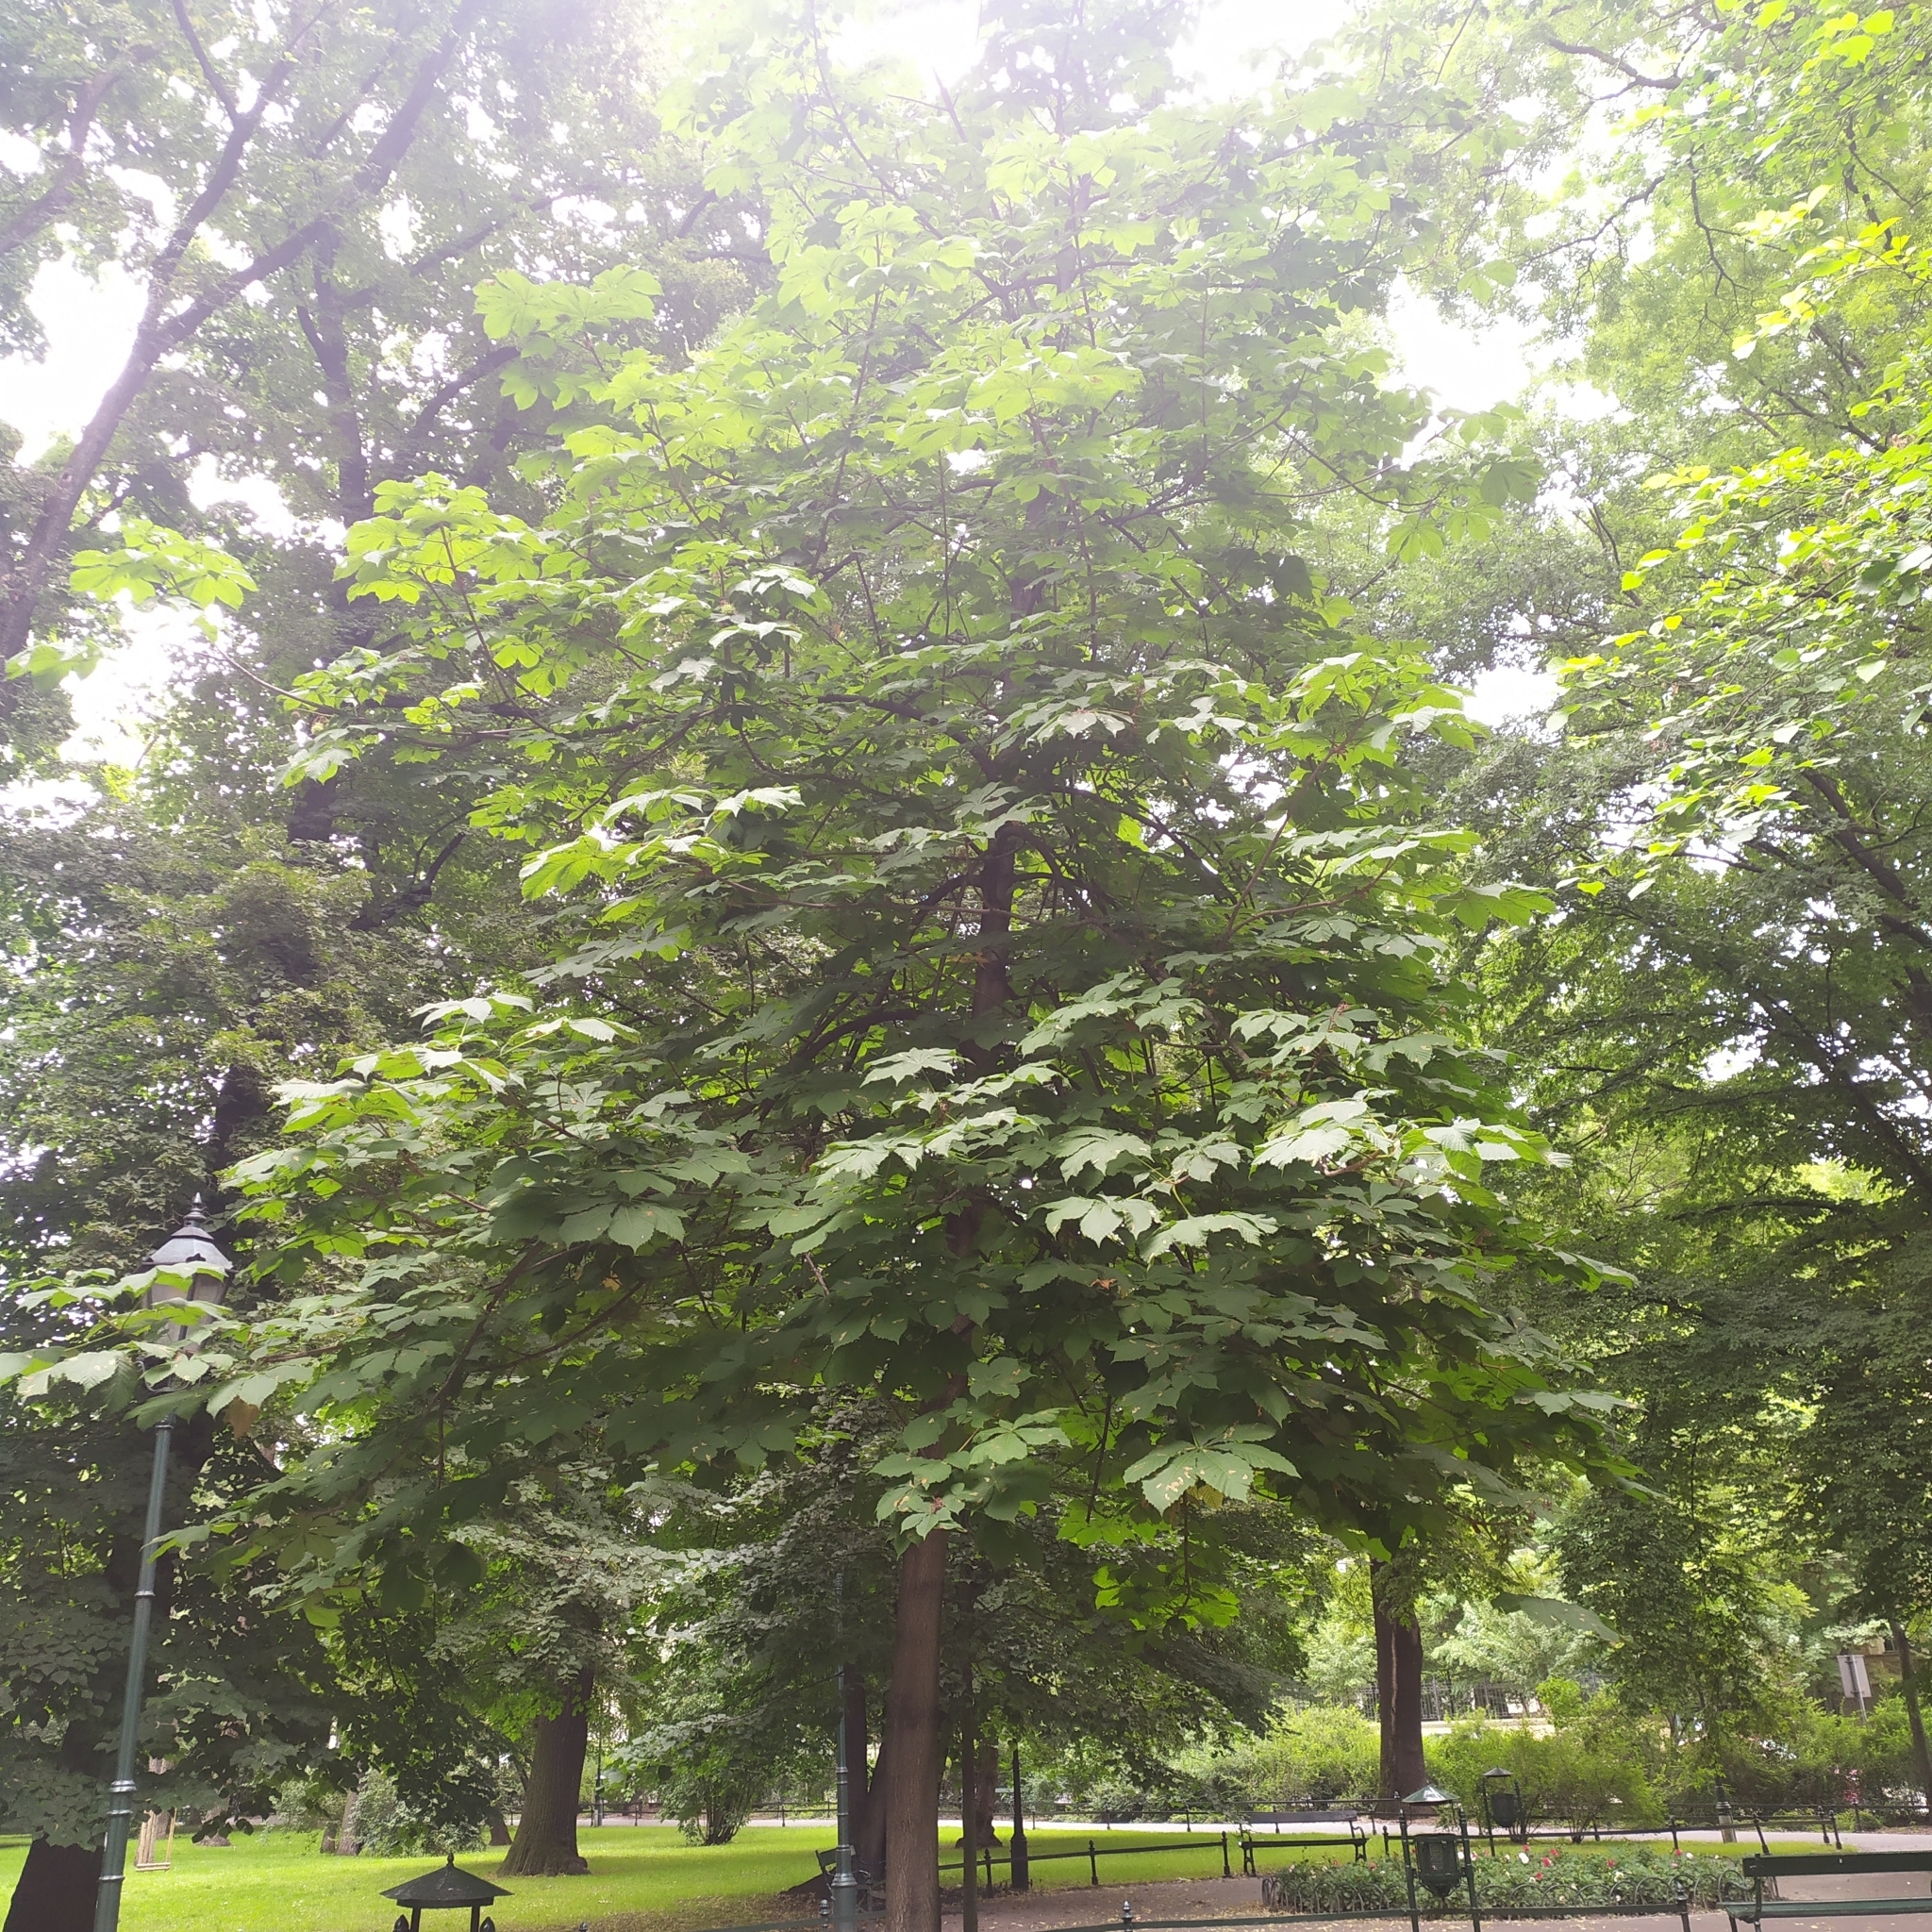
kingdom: Animalia
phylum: Arthropoda
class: Insecta
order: Lepidoptera
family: Gracillariidae
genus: Cameraria
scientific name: Cameraria ohridella
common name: Horse-chestnut leaf-miner
